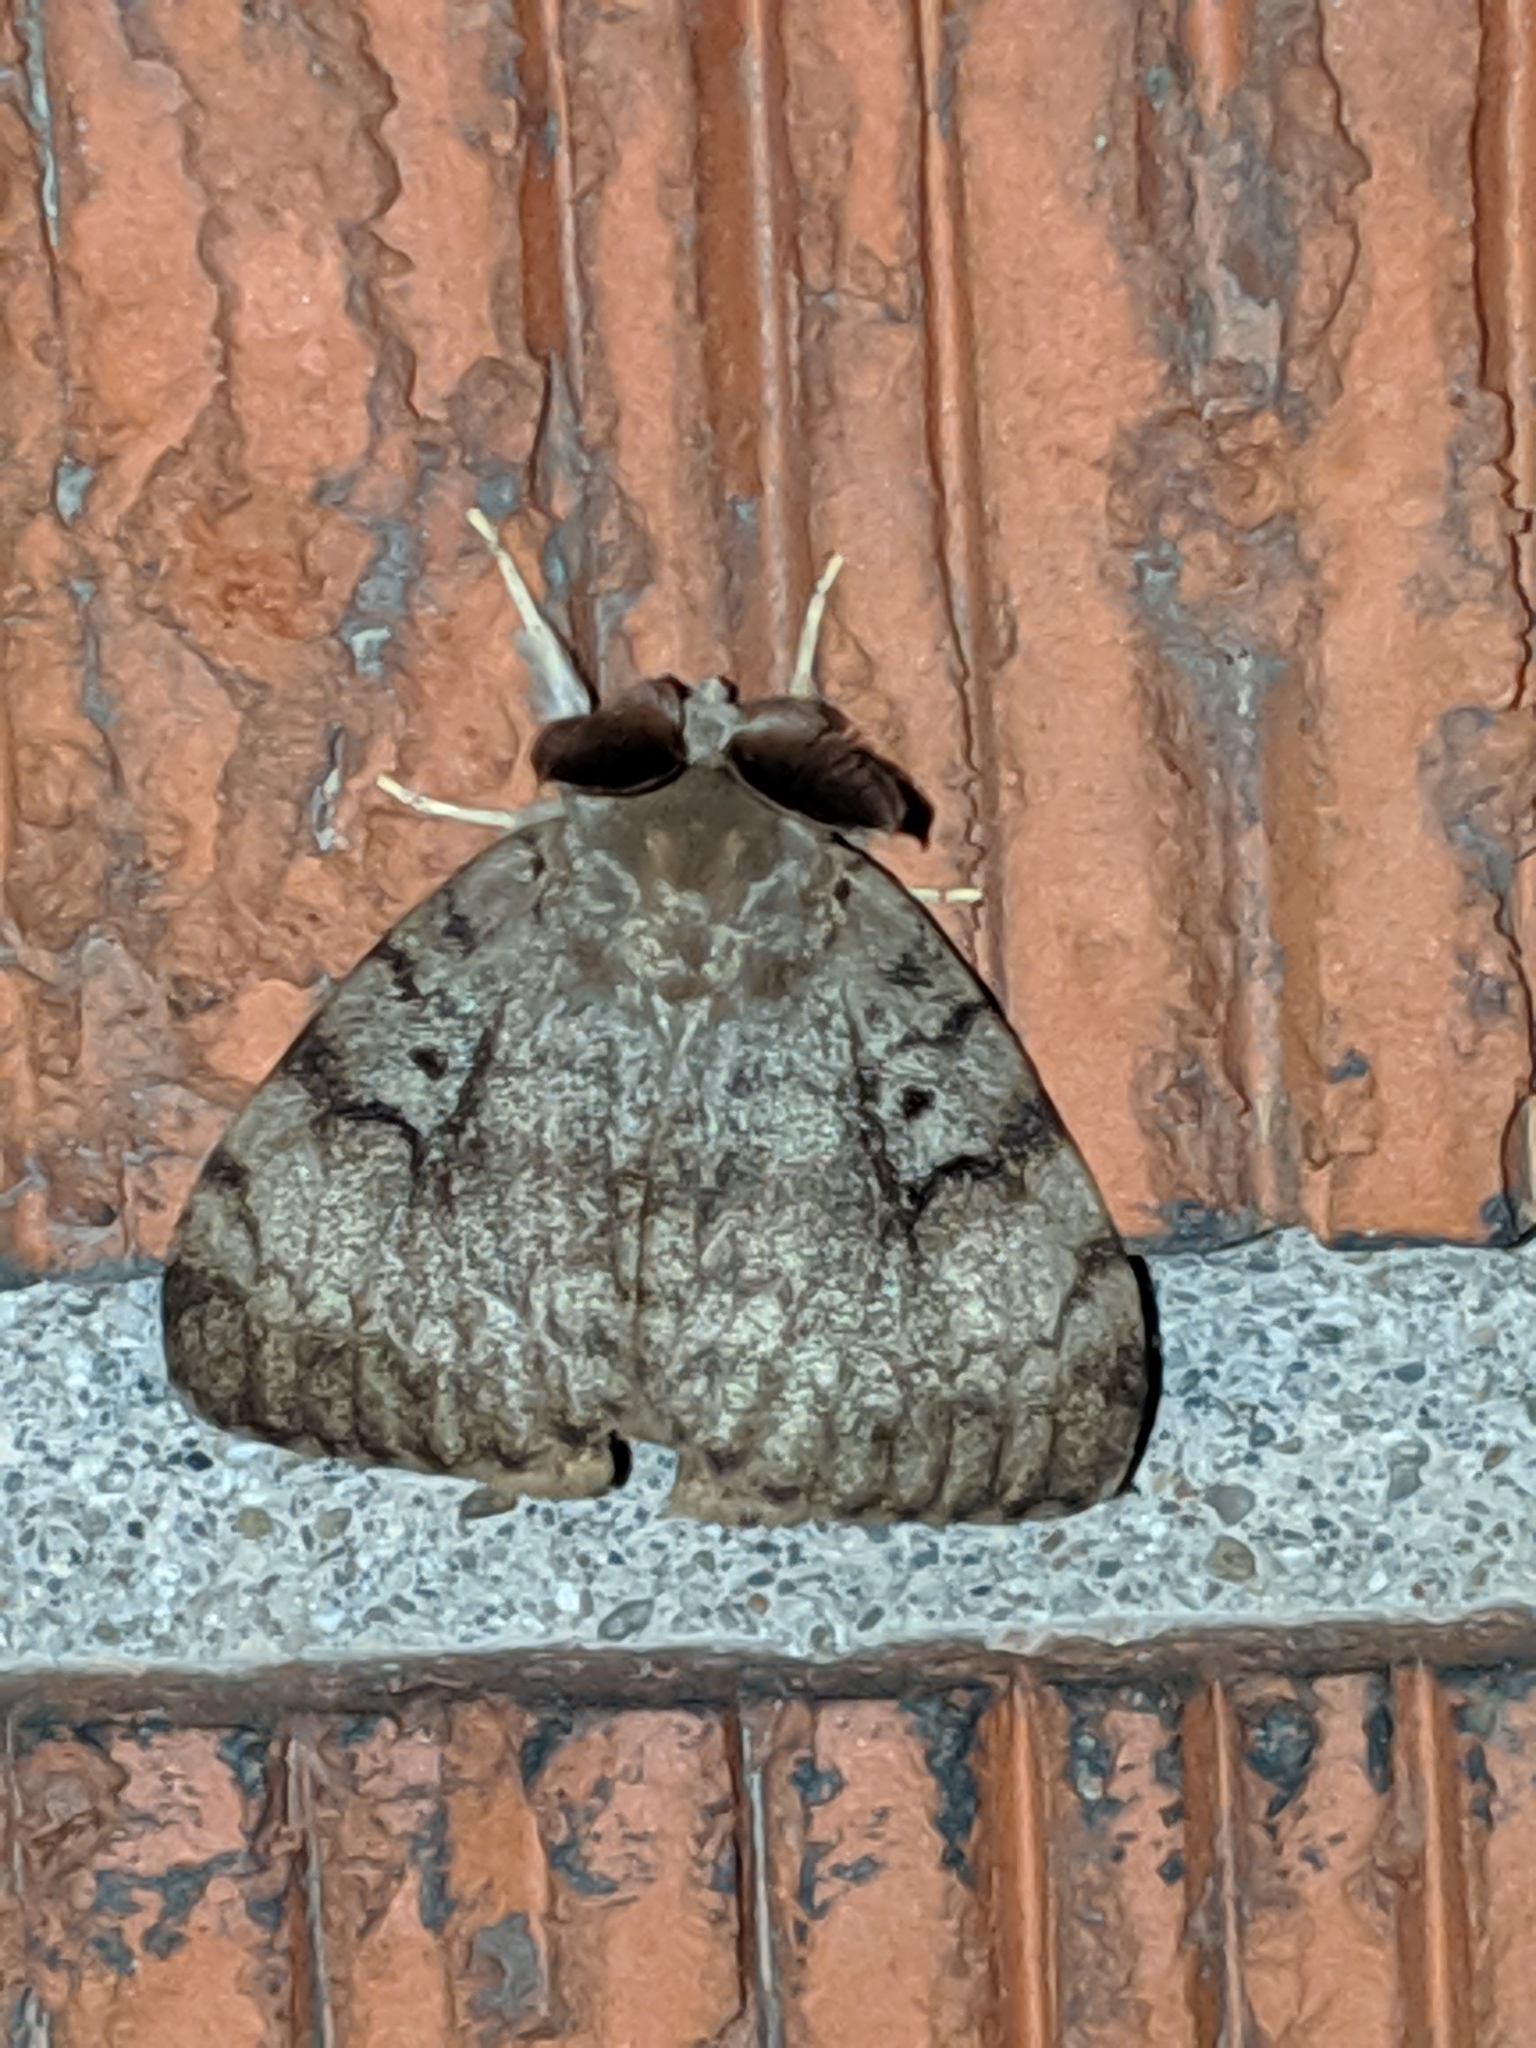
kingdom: Animalia
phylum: Arthropoda
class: Insecta
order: Lepidoptera
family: Erebidae
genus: Lymantria
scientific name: Lymantria dispar
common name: Gypsy moth
